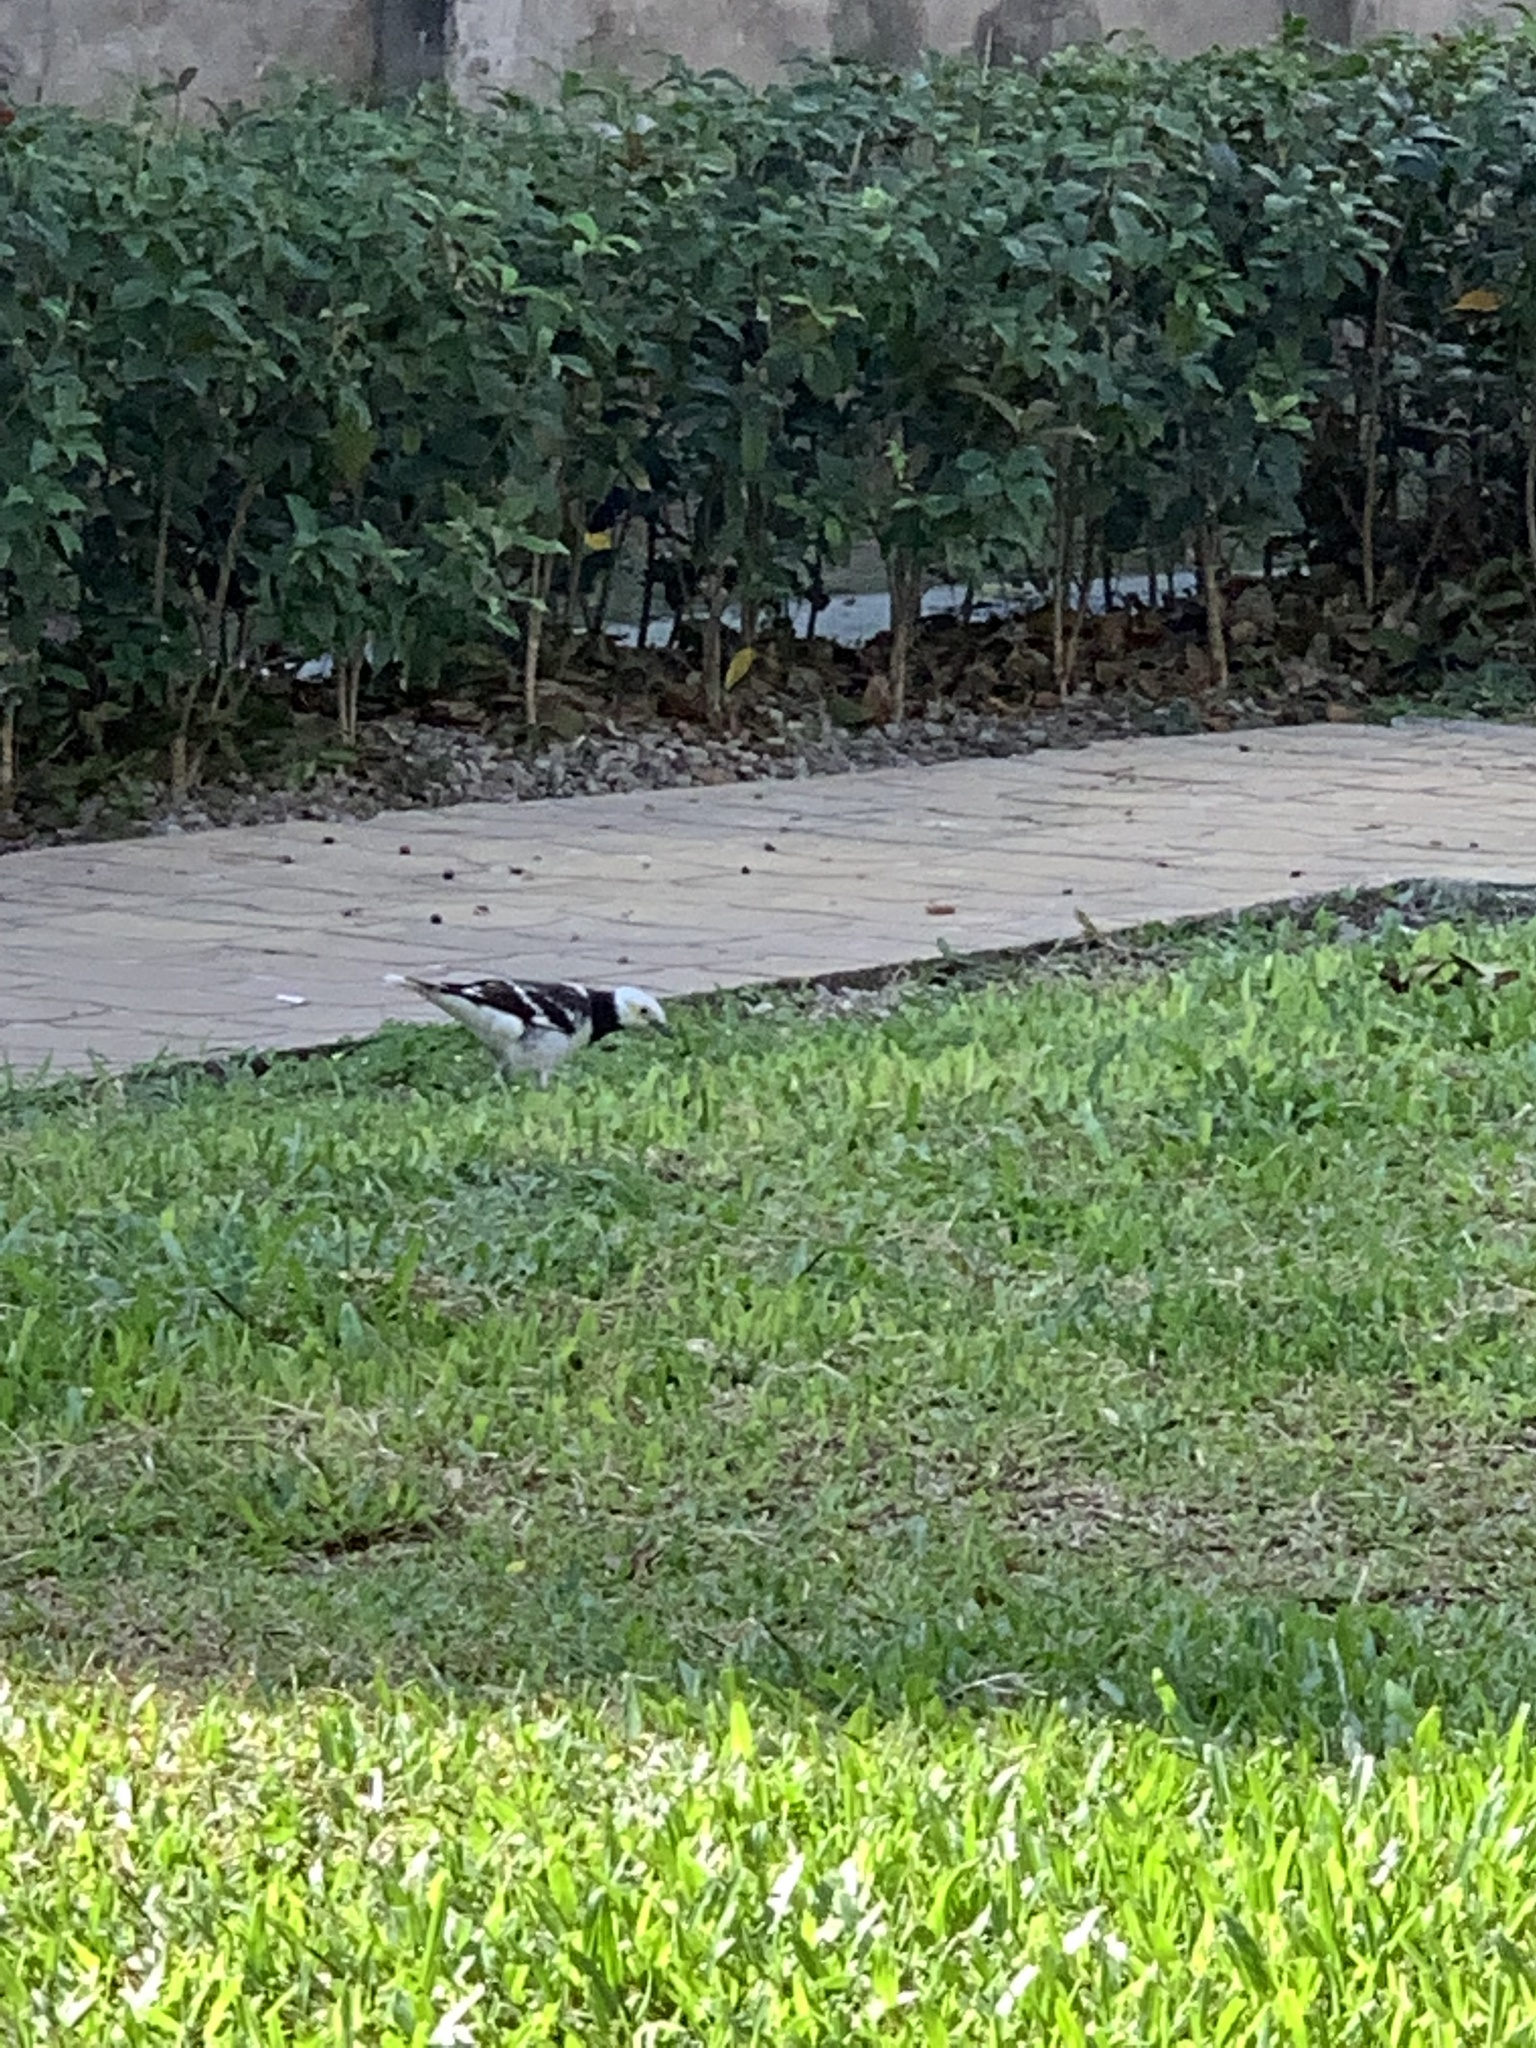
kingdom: Animalia
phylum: Chordata
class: Aves
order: Passeriformes
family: Sturnidae
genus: Gracupica
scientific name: Gracupica nigricollis
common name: Black-collared starling
